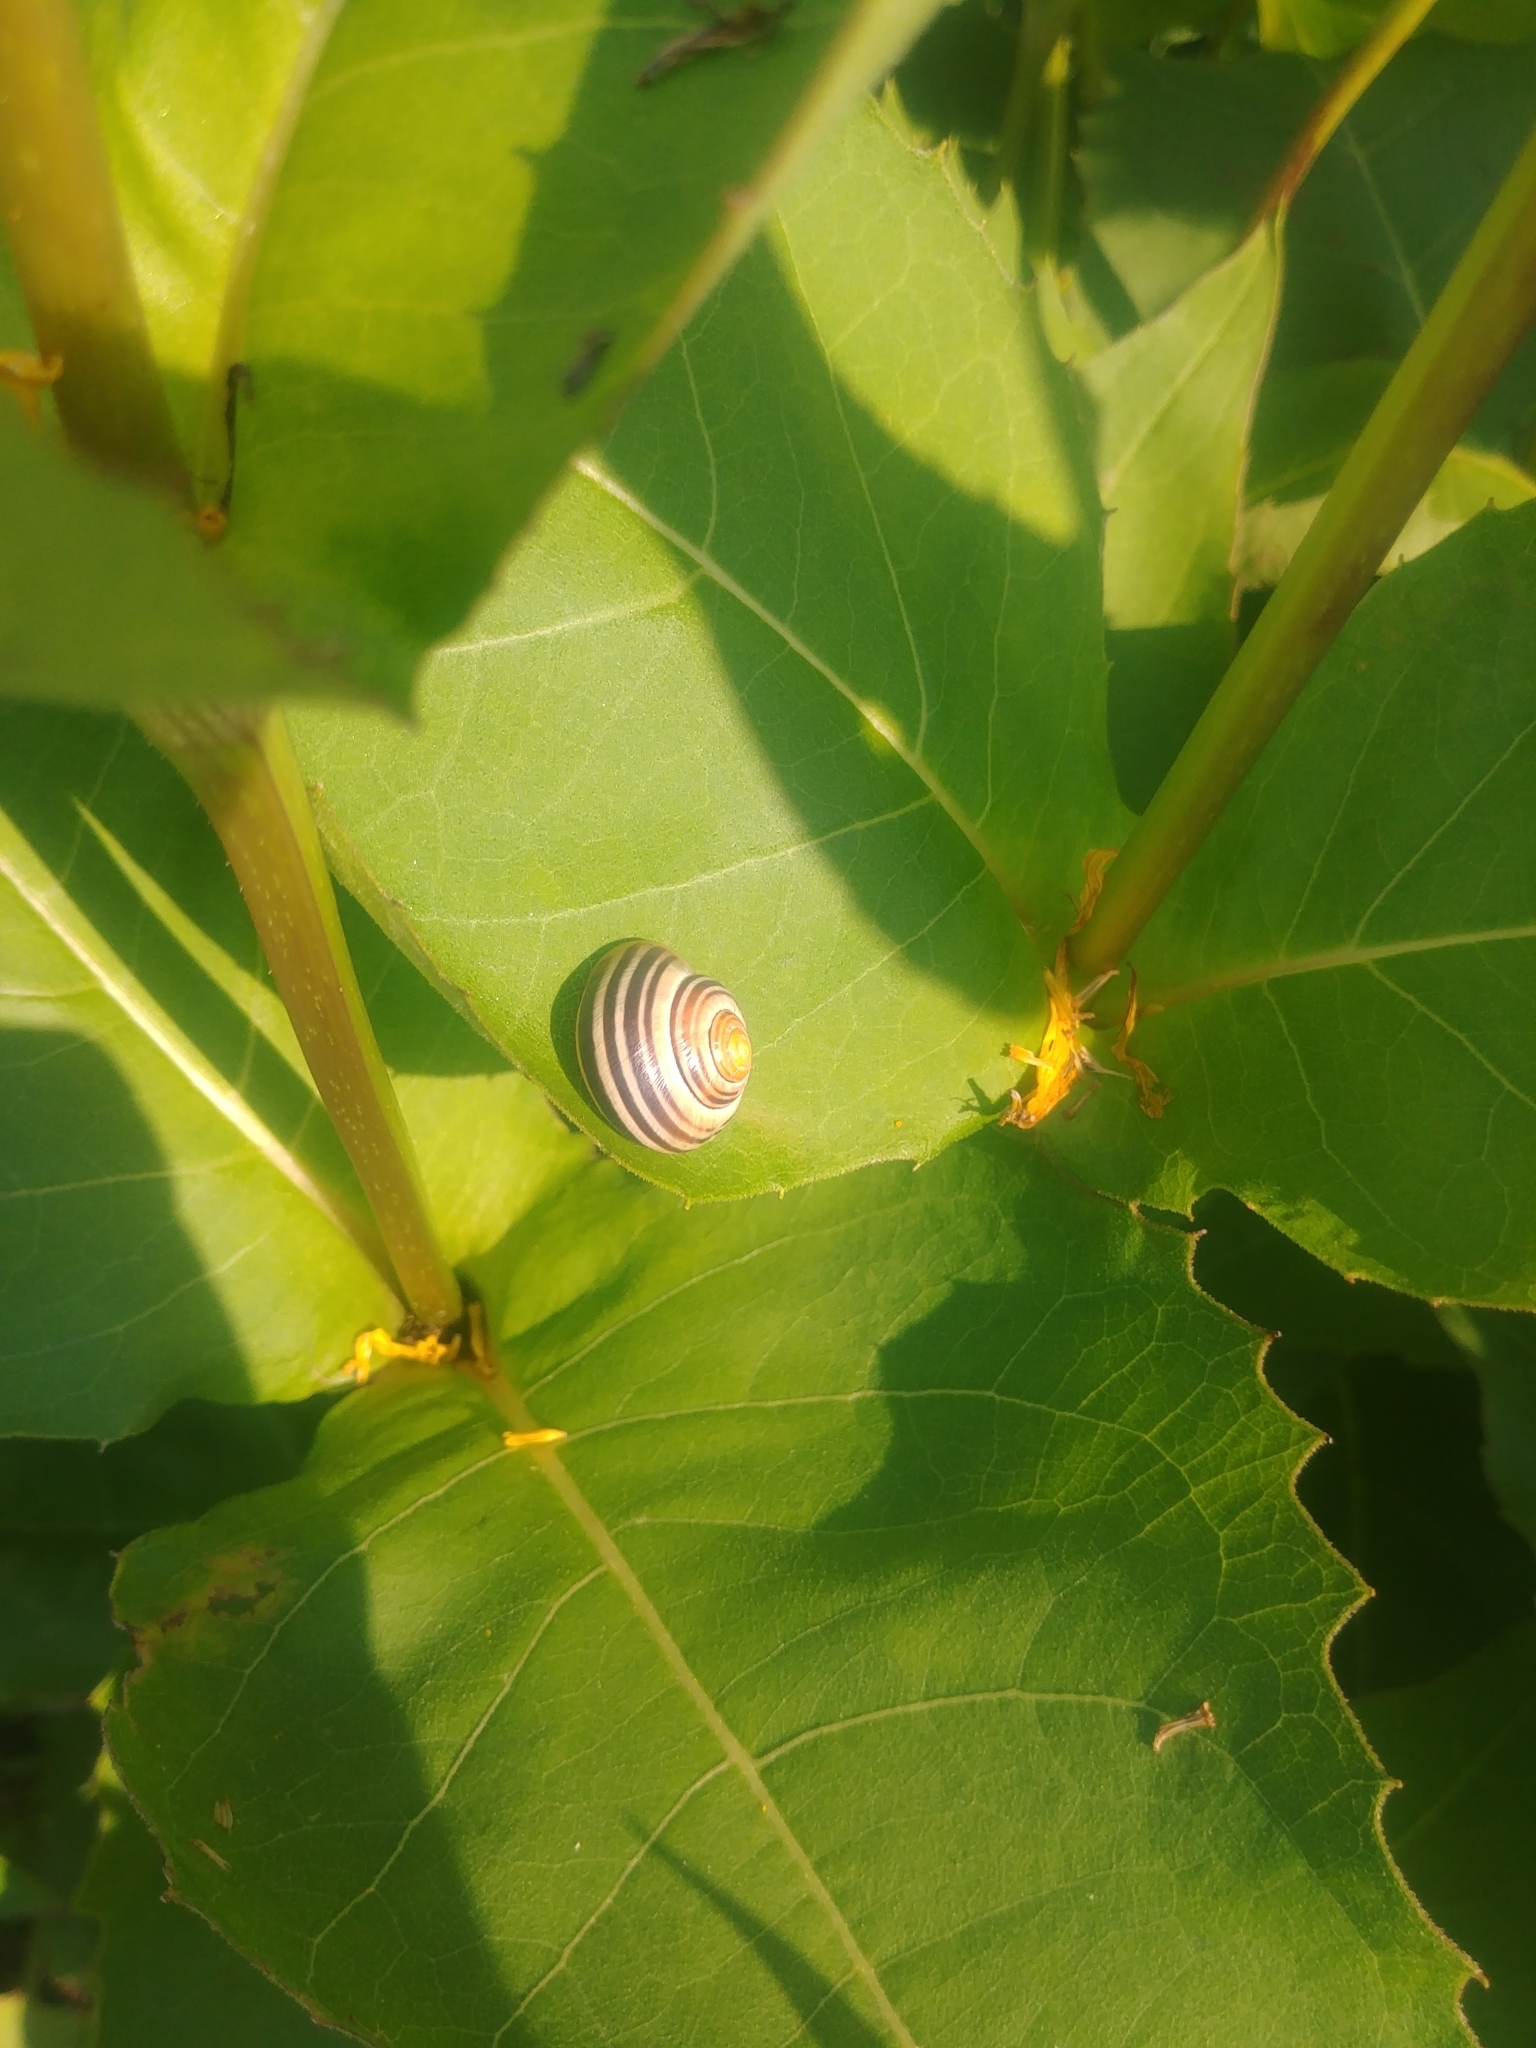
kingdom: Animalia
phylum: Mollusca
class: Gastropoda
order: Stylommatophora
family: Helicidae
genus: Cepaea
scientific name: Cepaea
